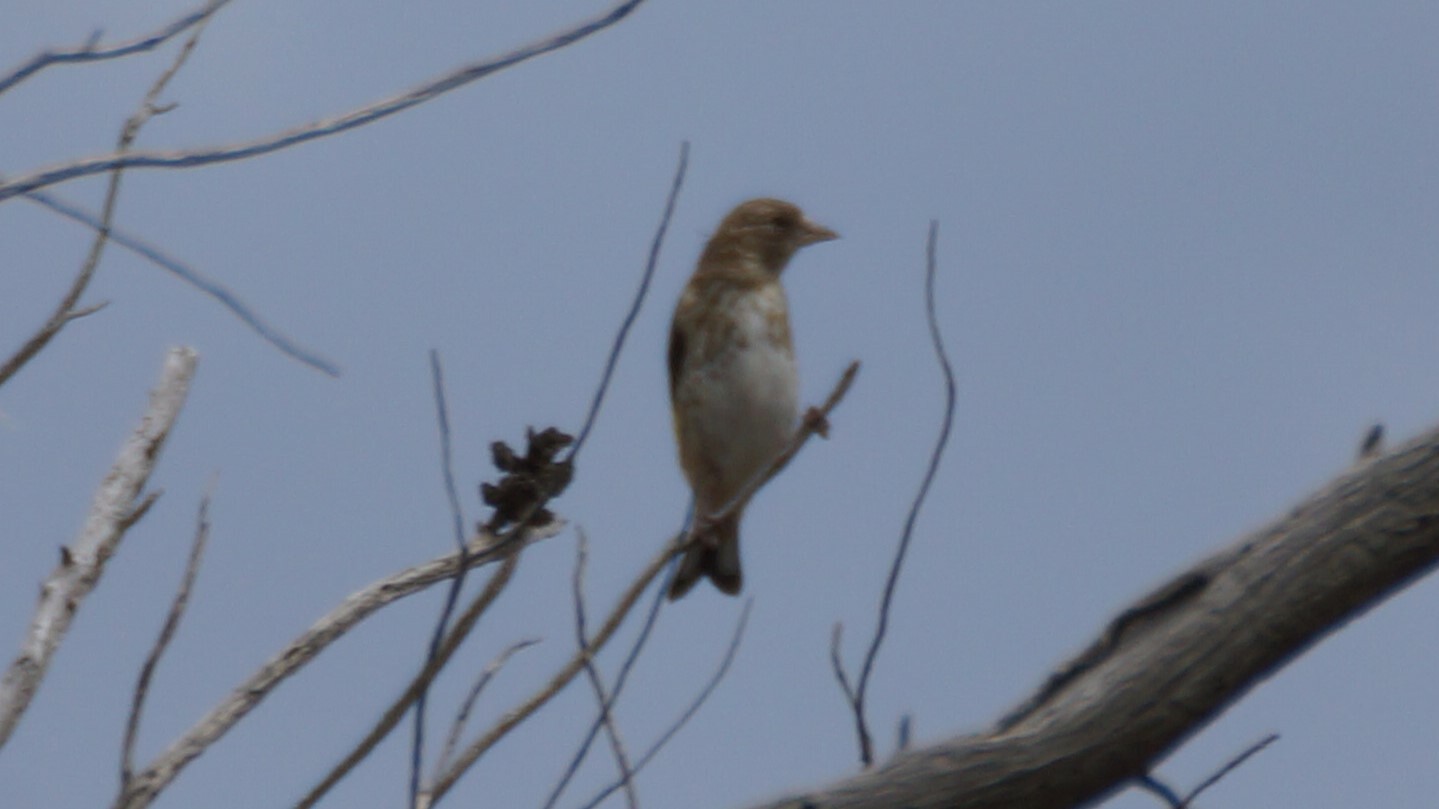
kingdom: Animalia
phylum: Chordata
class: Aves
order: Passeriformes
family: Fringillidae
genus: Carduelis
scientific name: Carduelis carduelis
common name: European goldfinch
